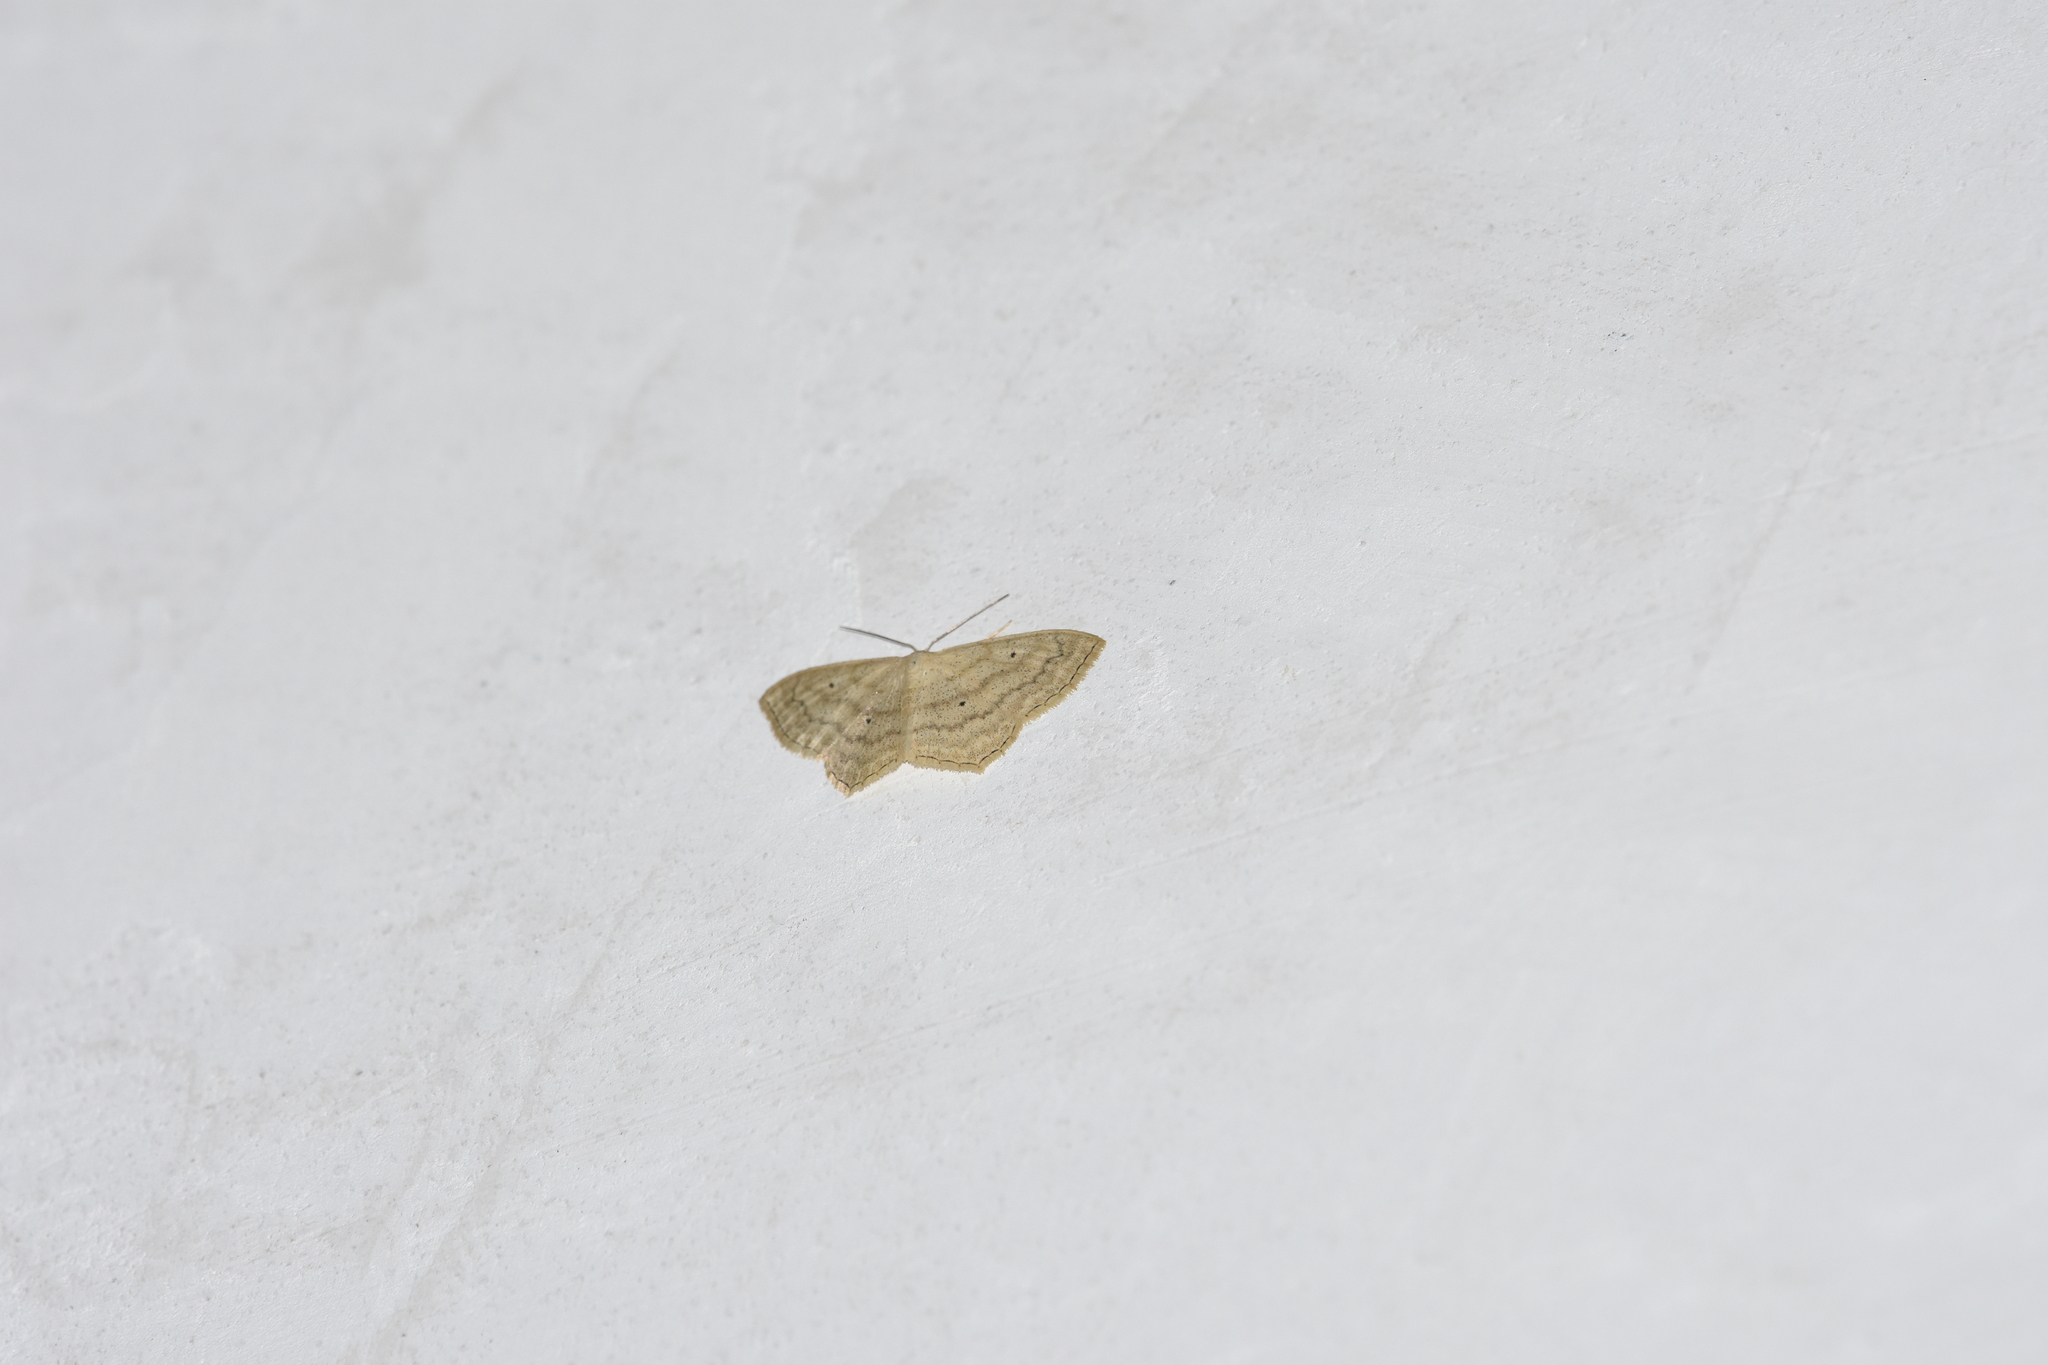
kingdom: Animalia
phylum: Arthropoda
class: Insecta
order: Lepidoptera
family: Geometridae
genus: Scopula
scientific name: Scopula nigropunctata
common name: Sub-angled wave
